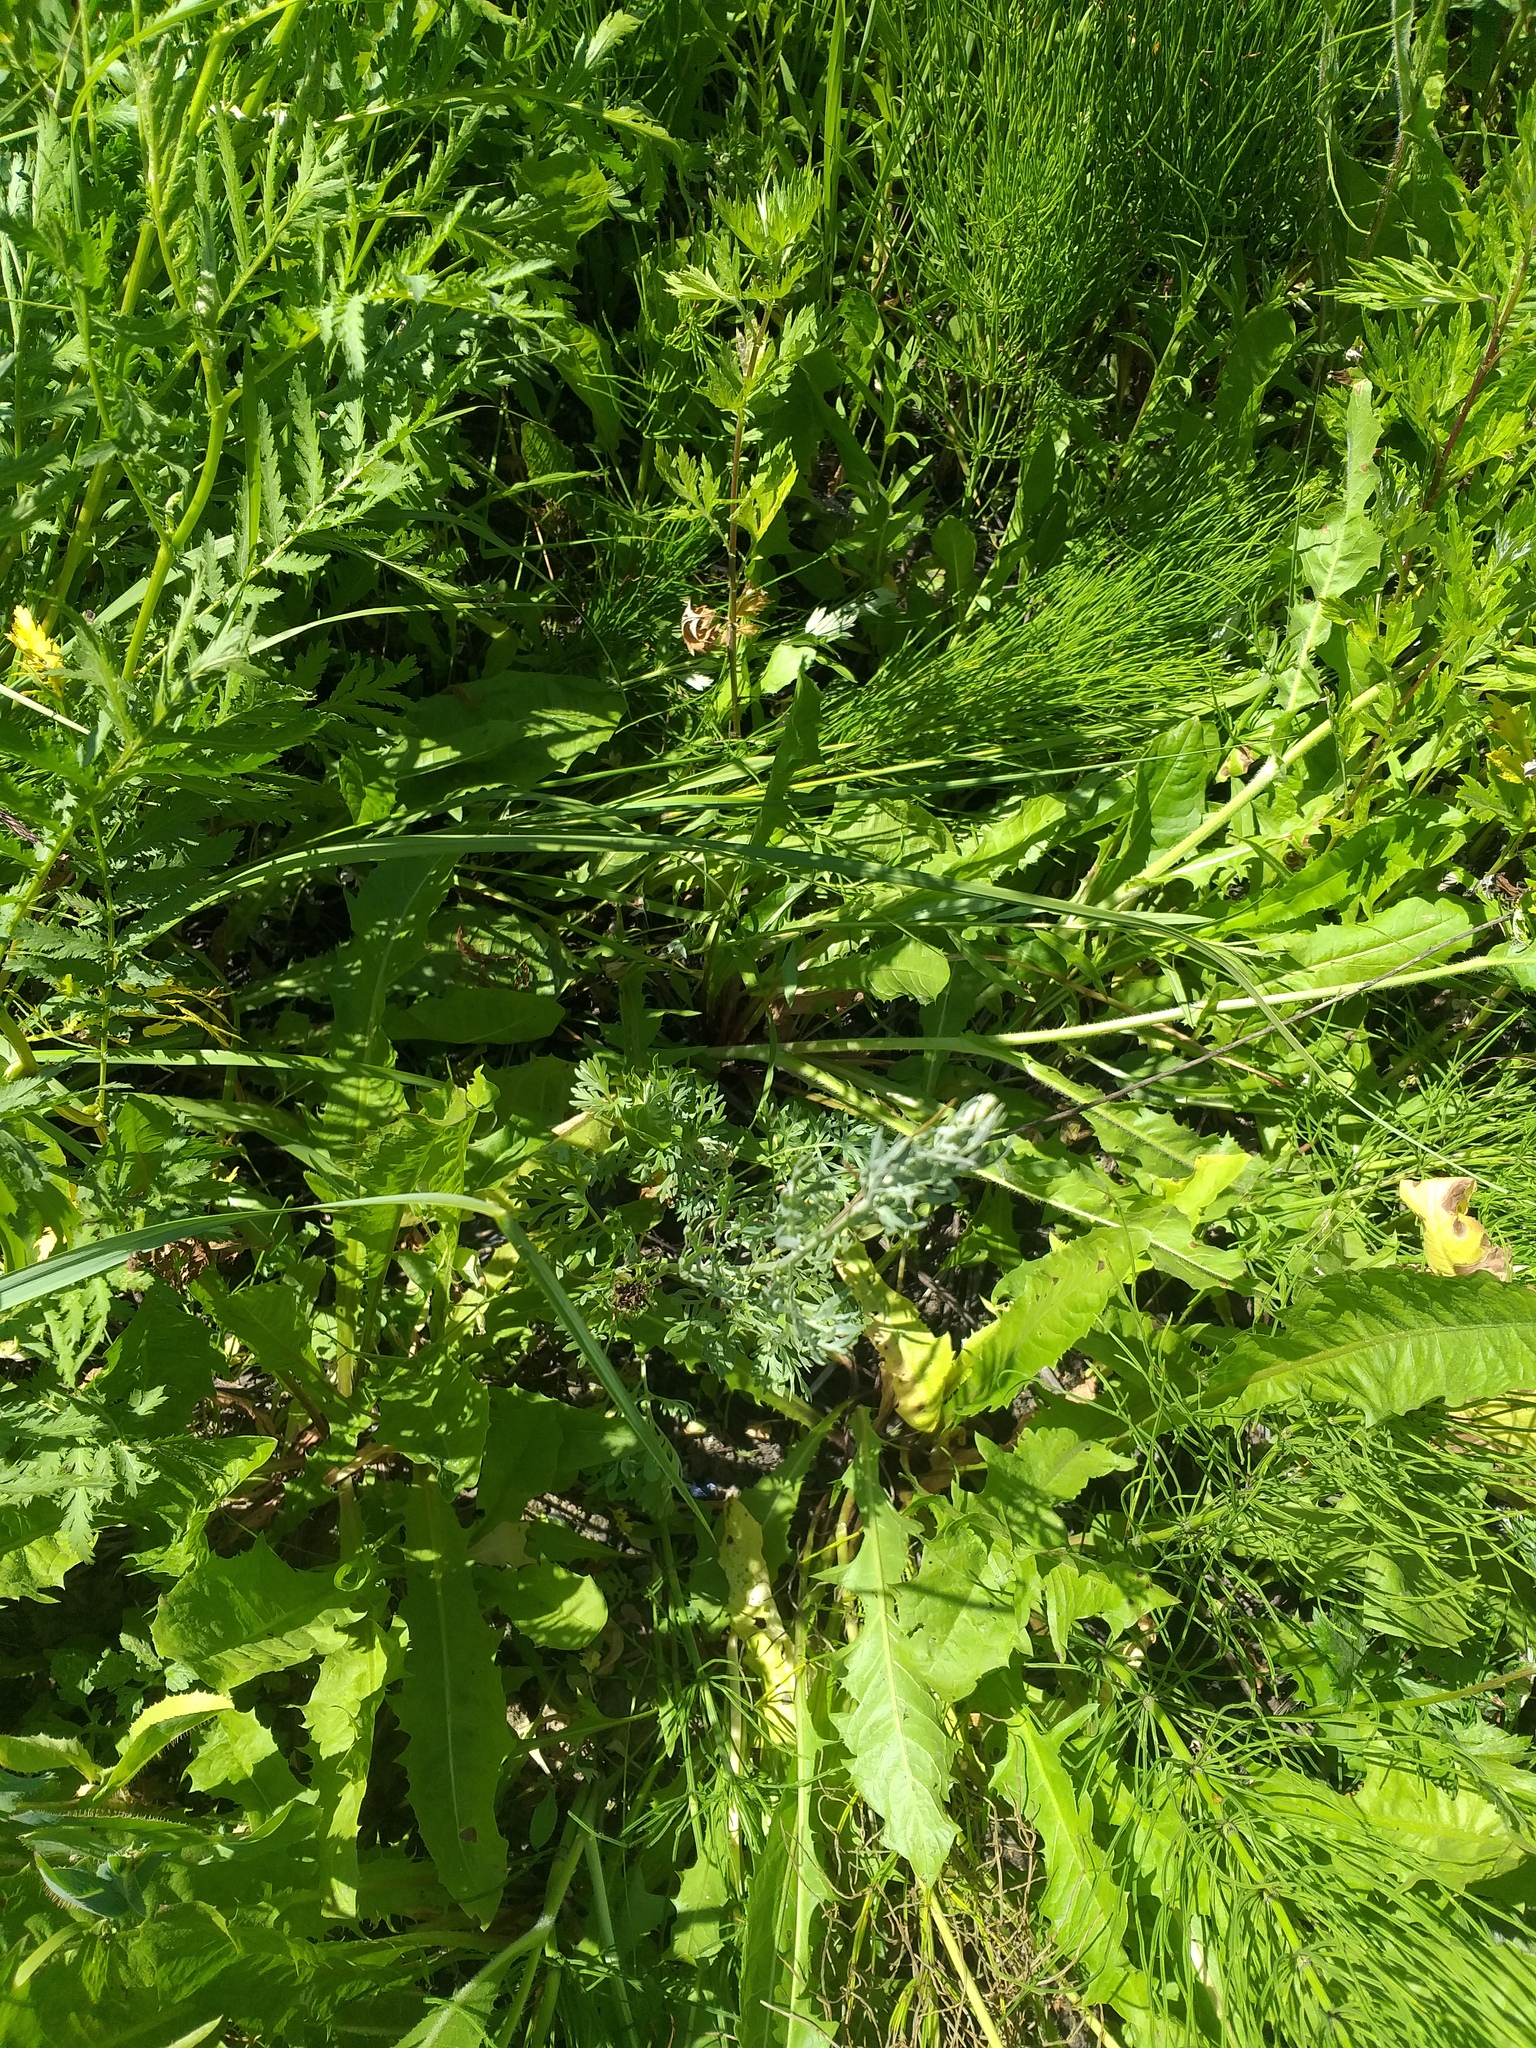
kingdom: Plantae
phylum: Tracheophyta
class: Magnoliopsida
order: Asterales
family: Asteraceae
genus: Artemisia
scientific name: Artemisia absinthium
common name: Wormwood
